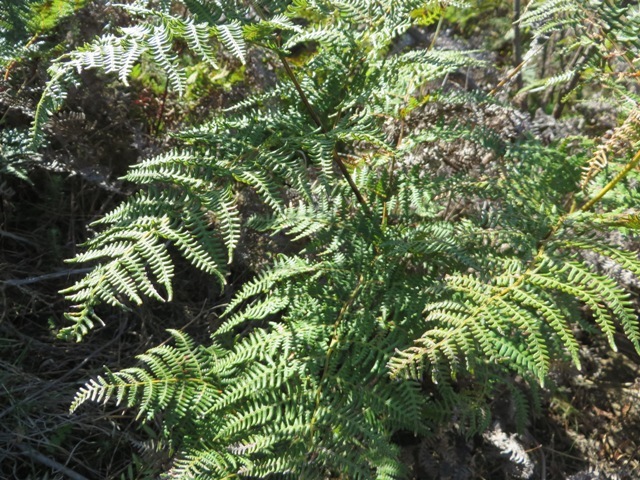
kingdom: Plantae
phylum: Tracheophyta
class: Polypodiopsida
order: Polypodiales
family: Dennstaedtiaceae
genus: Pteridium
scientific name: Pteridium aquilinum
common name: Bracken
